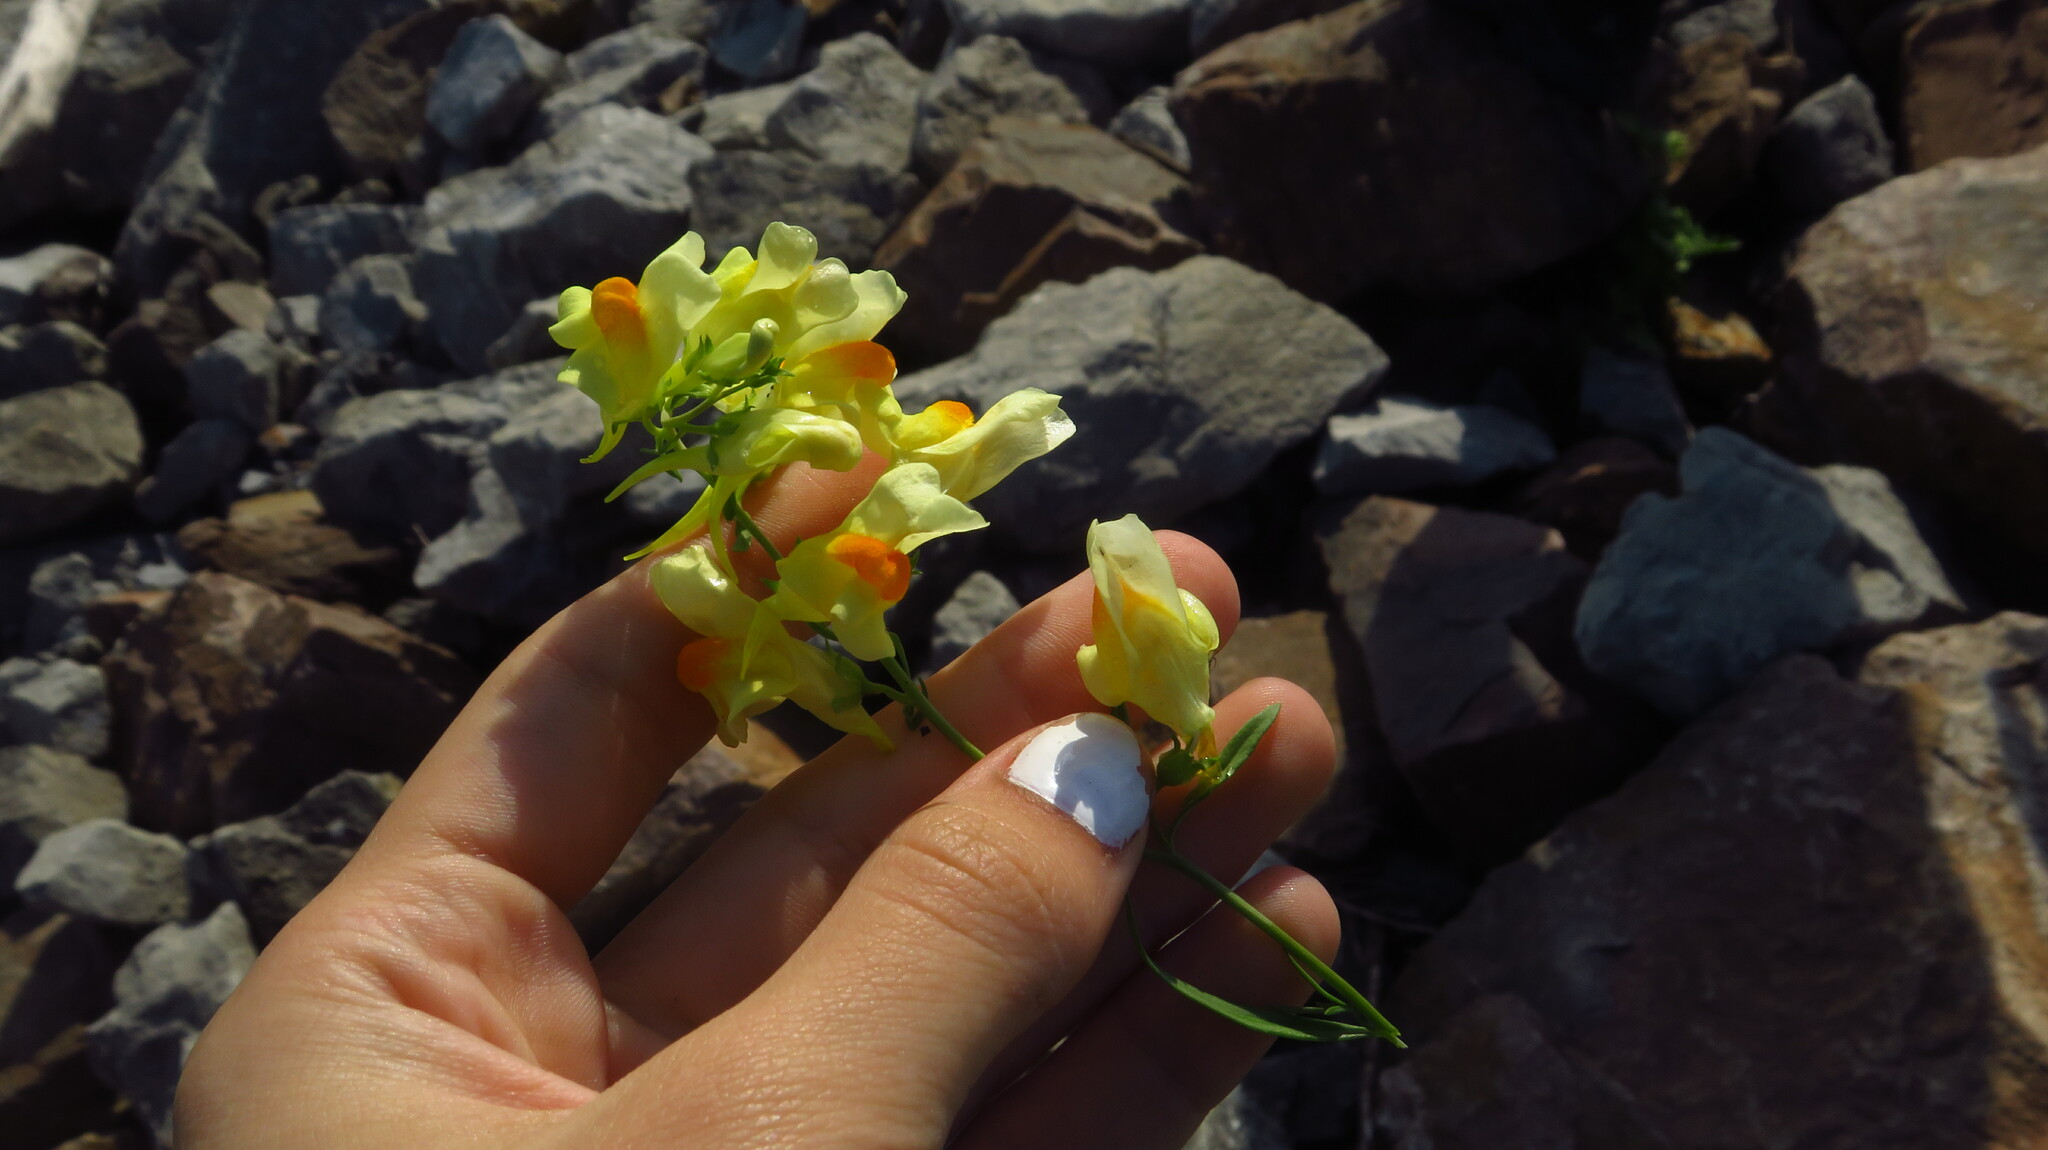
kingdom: Plantae
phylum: Tracheophyta
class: Magnoliopsida
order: Lamiales
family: Plantaginaceae
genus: Linaria
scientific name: Linaria vulgaris
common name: Butter and eggs
